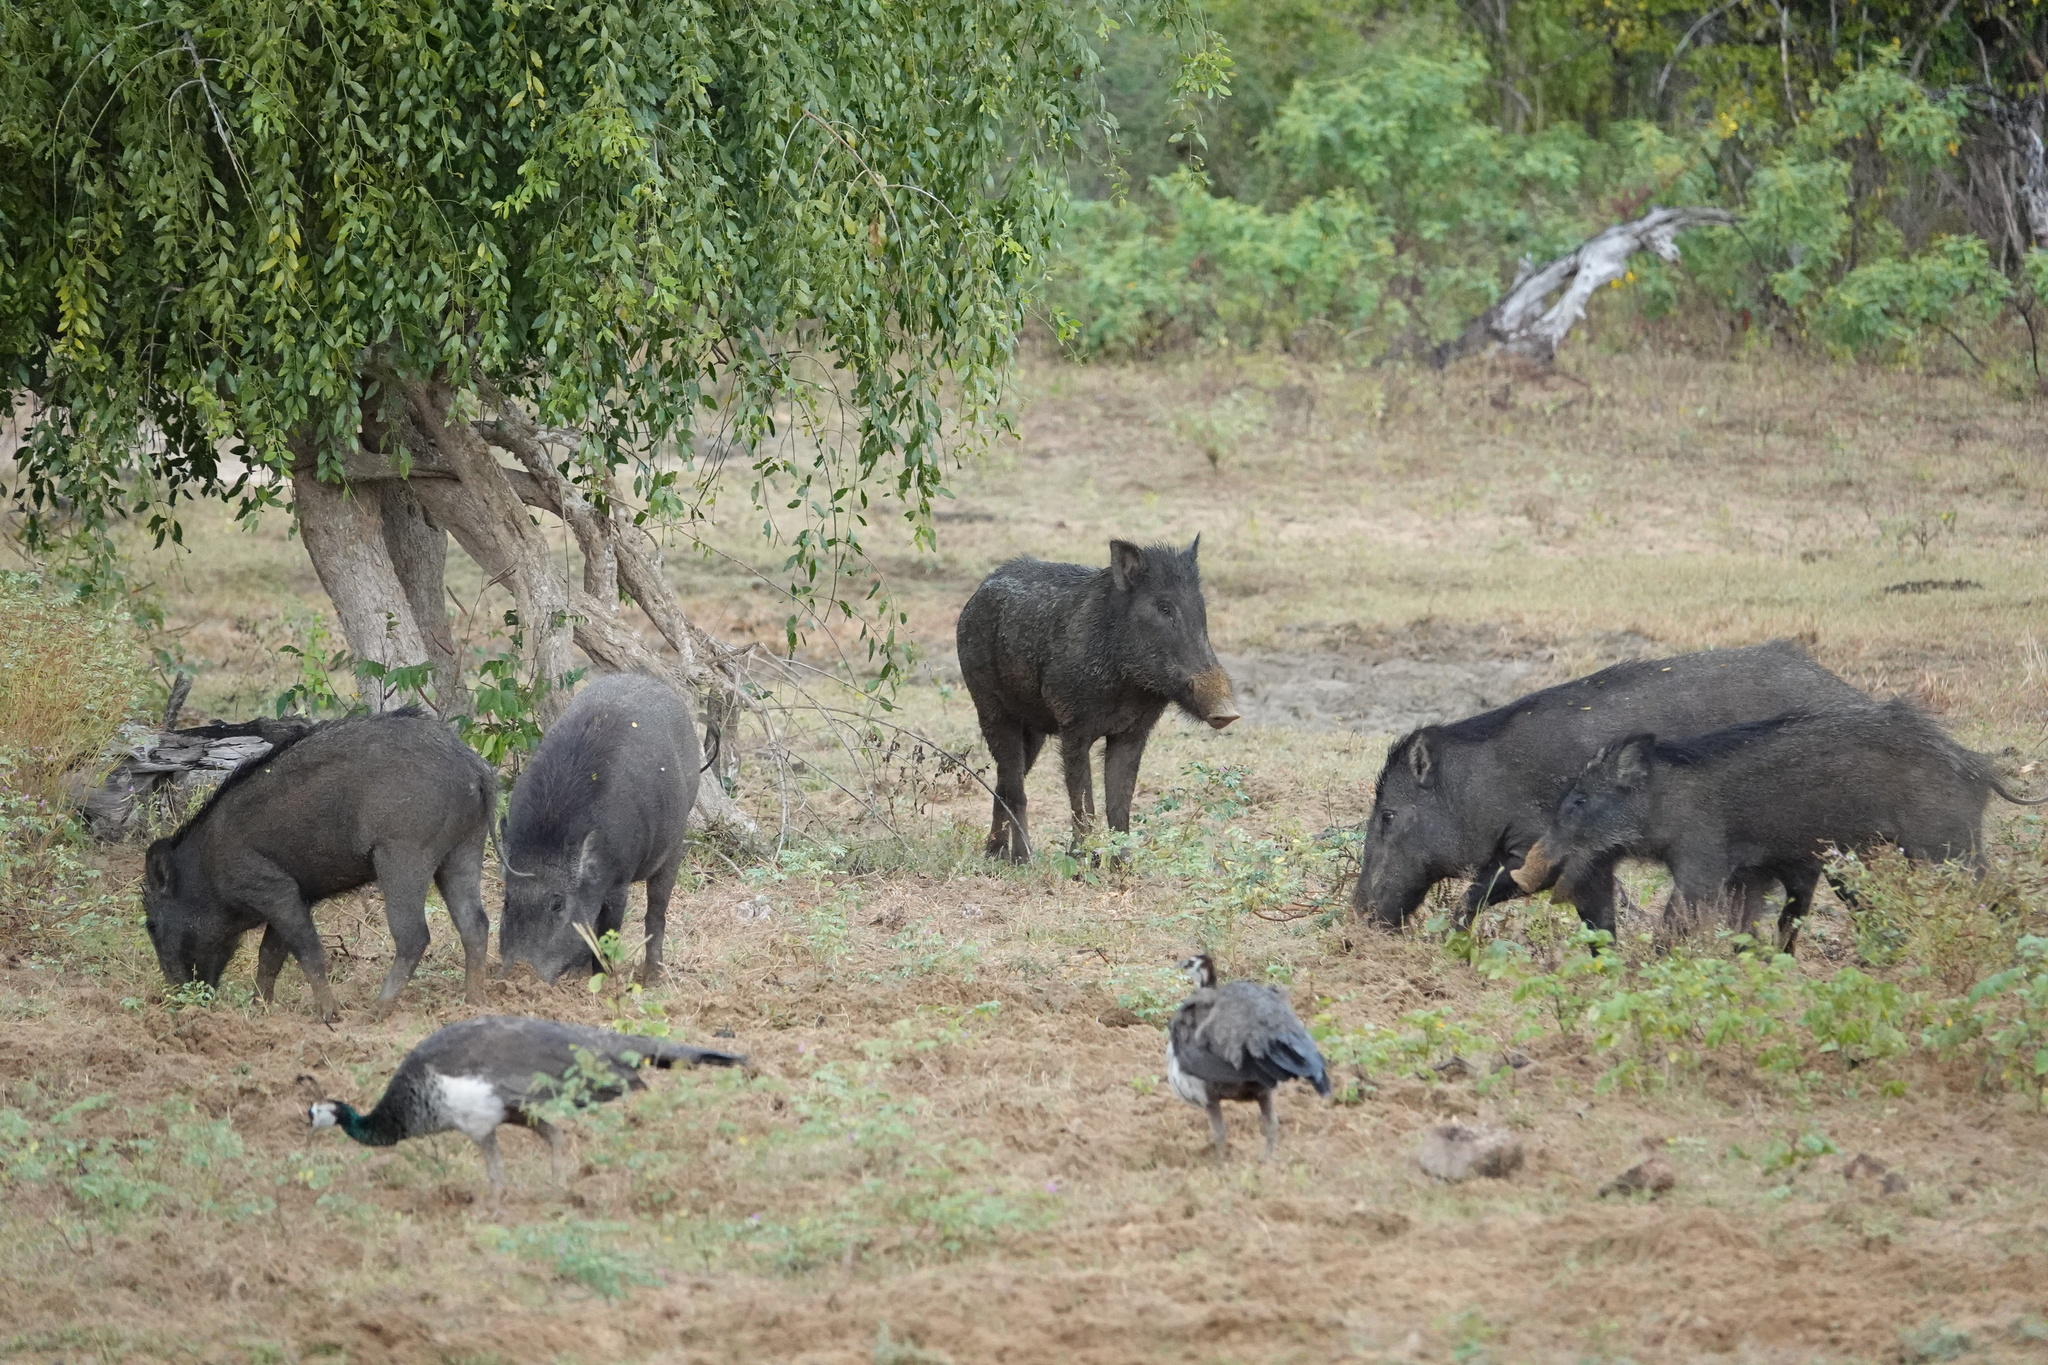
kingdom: Animalia
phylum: Chordata
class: Mammalia
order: Artiodactyla
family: Suidae
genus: Sus
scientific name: Sus scrofa
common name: Wild boar
